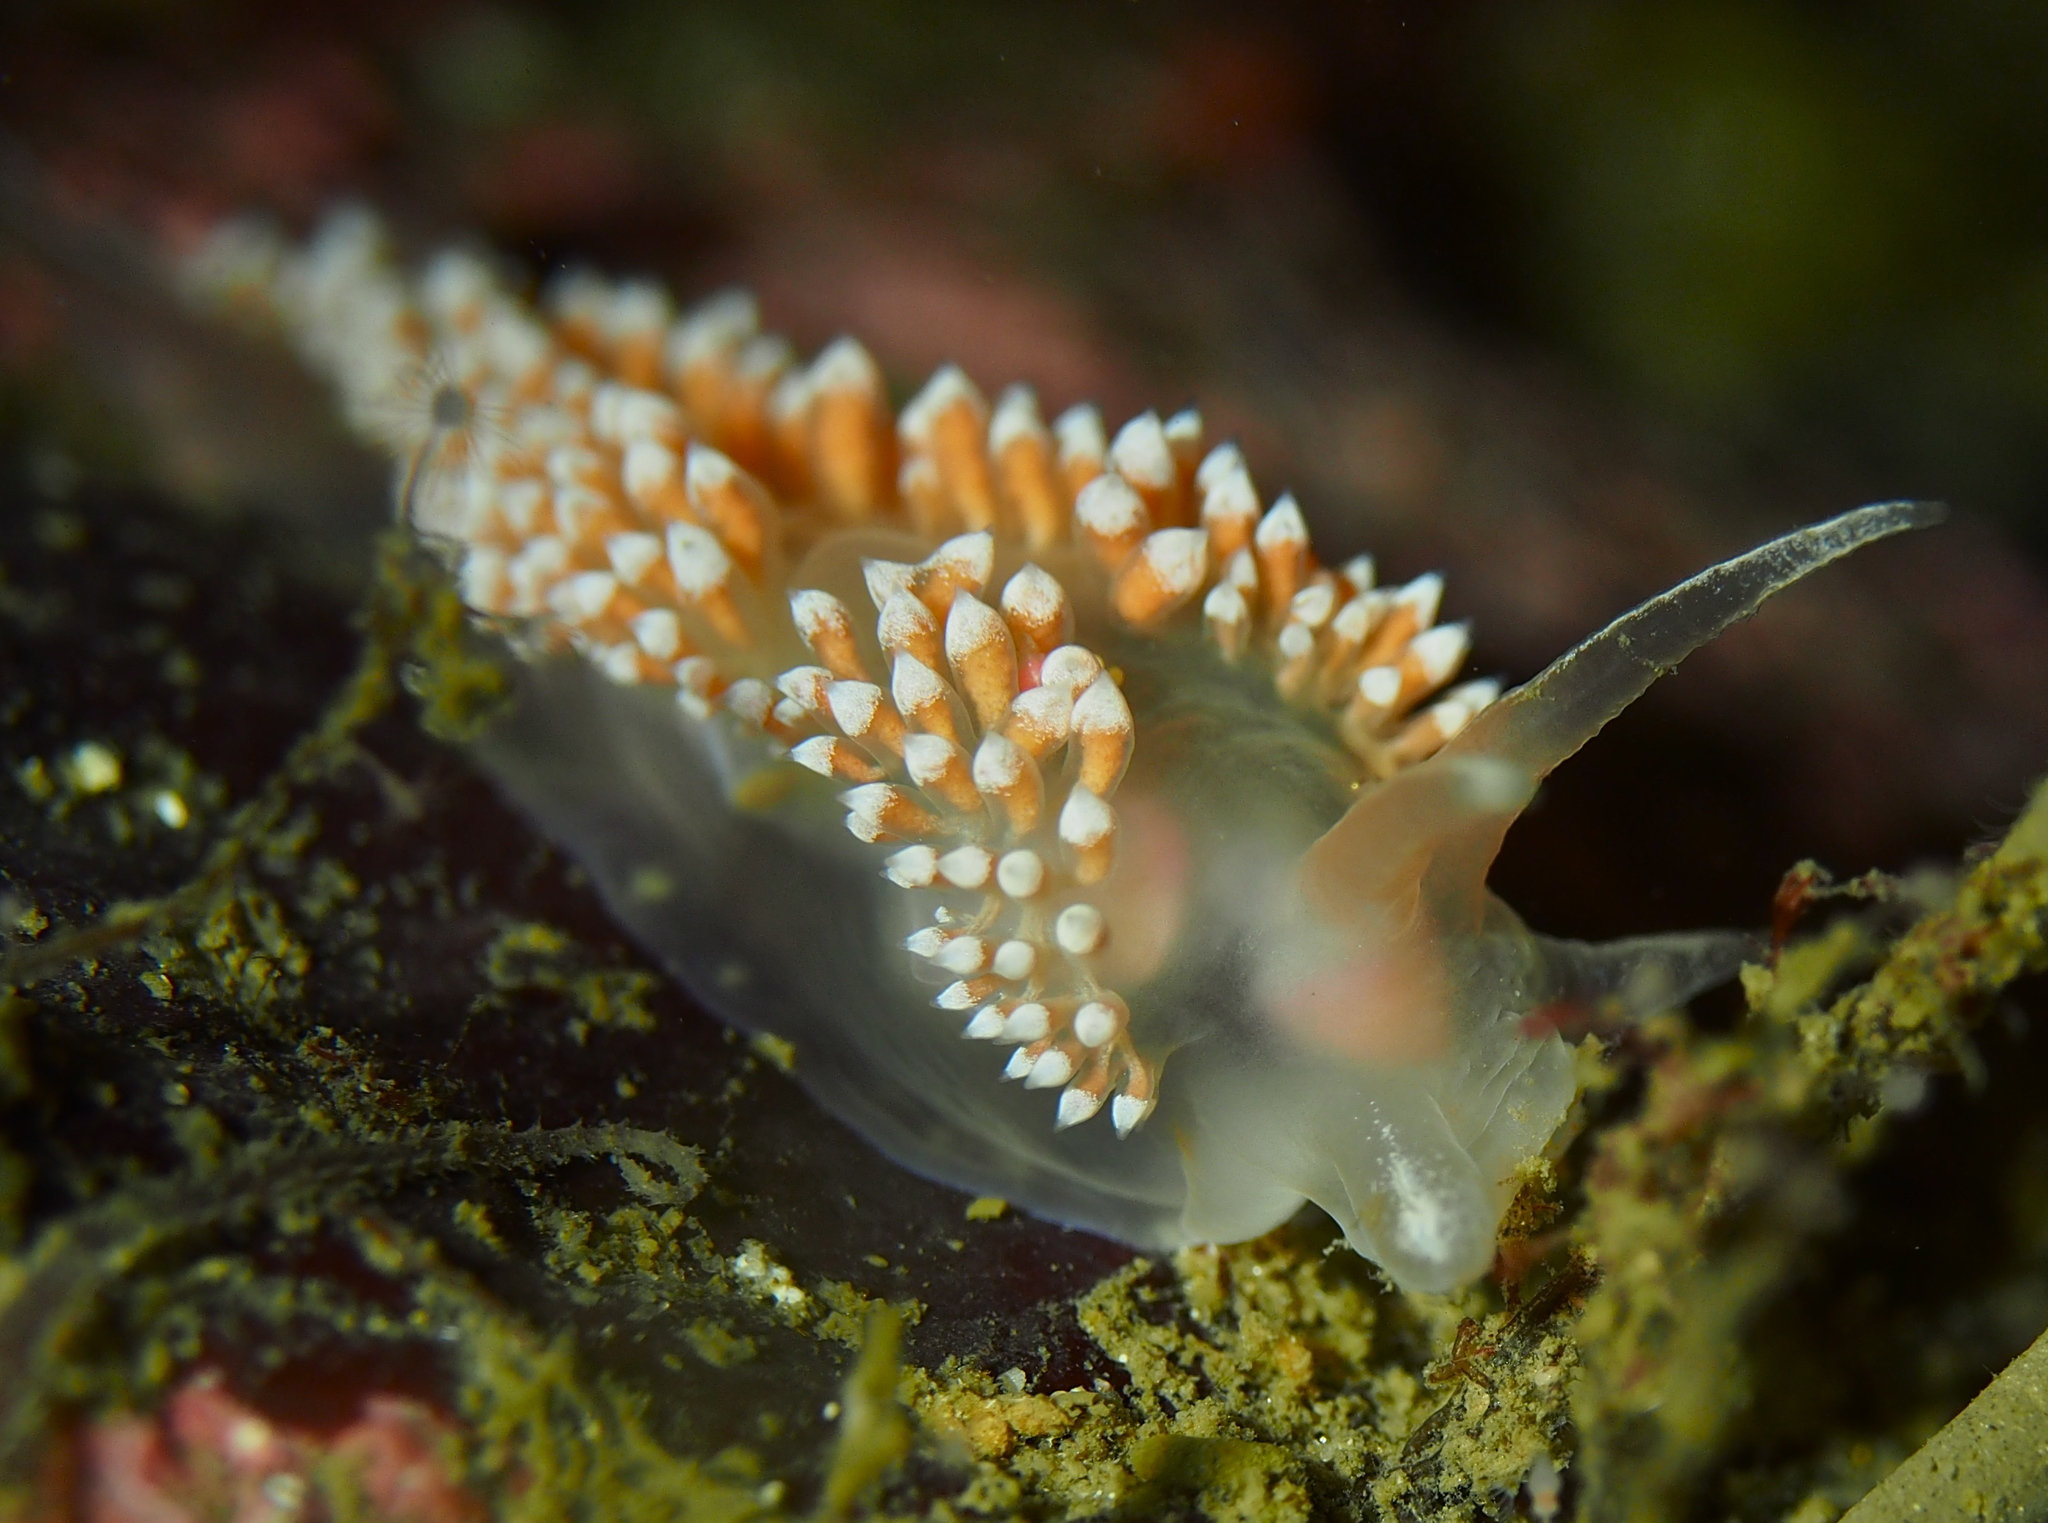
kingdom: Animalia
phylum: Mollusca
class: Gastropoda
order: Nudibranchia
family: Coryphellidae
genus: Coryphella
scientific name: Coryphella verrucosa
